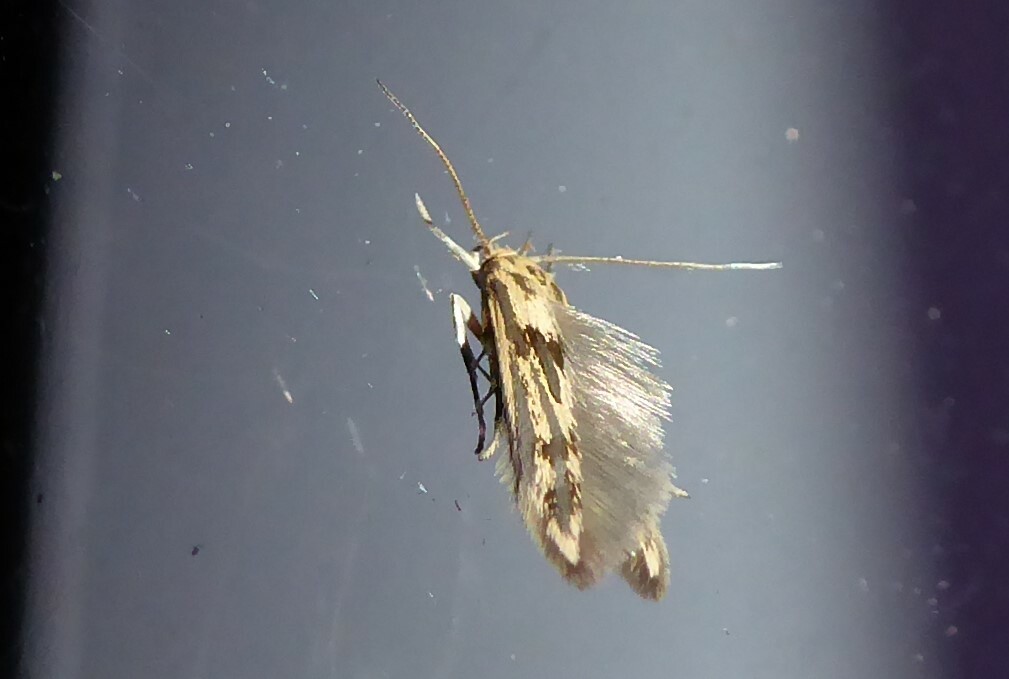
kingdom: Animalia
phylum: Arthropoda
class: Insecta
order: Lepidoptera
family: Stathmopodidae
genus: Stathmopoda
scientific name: Stathmopoda plumbiflua
